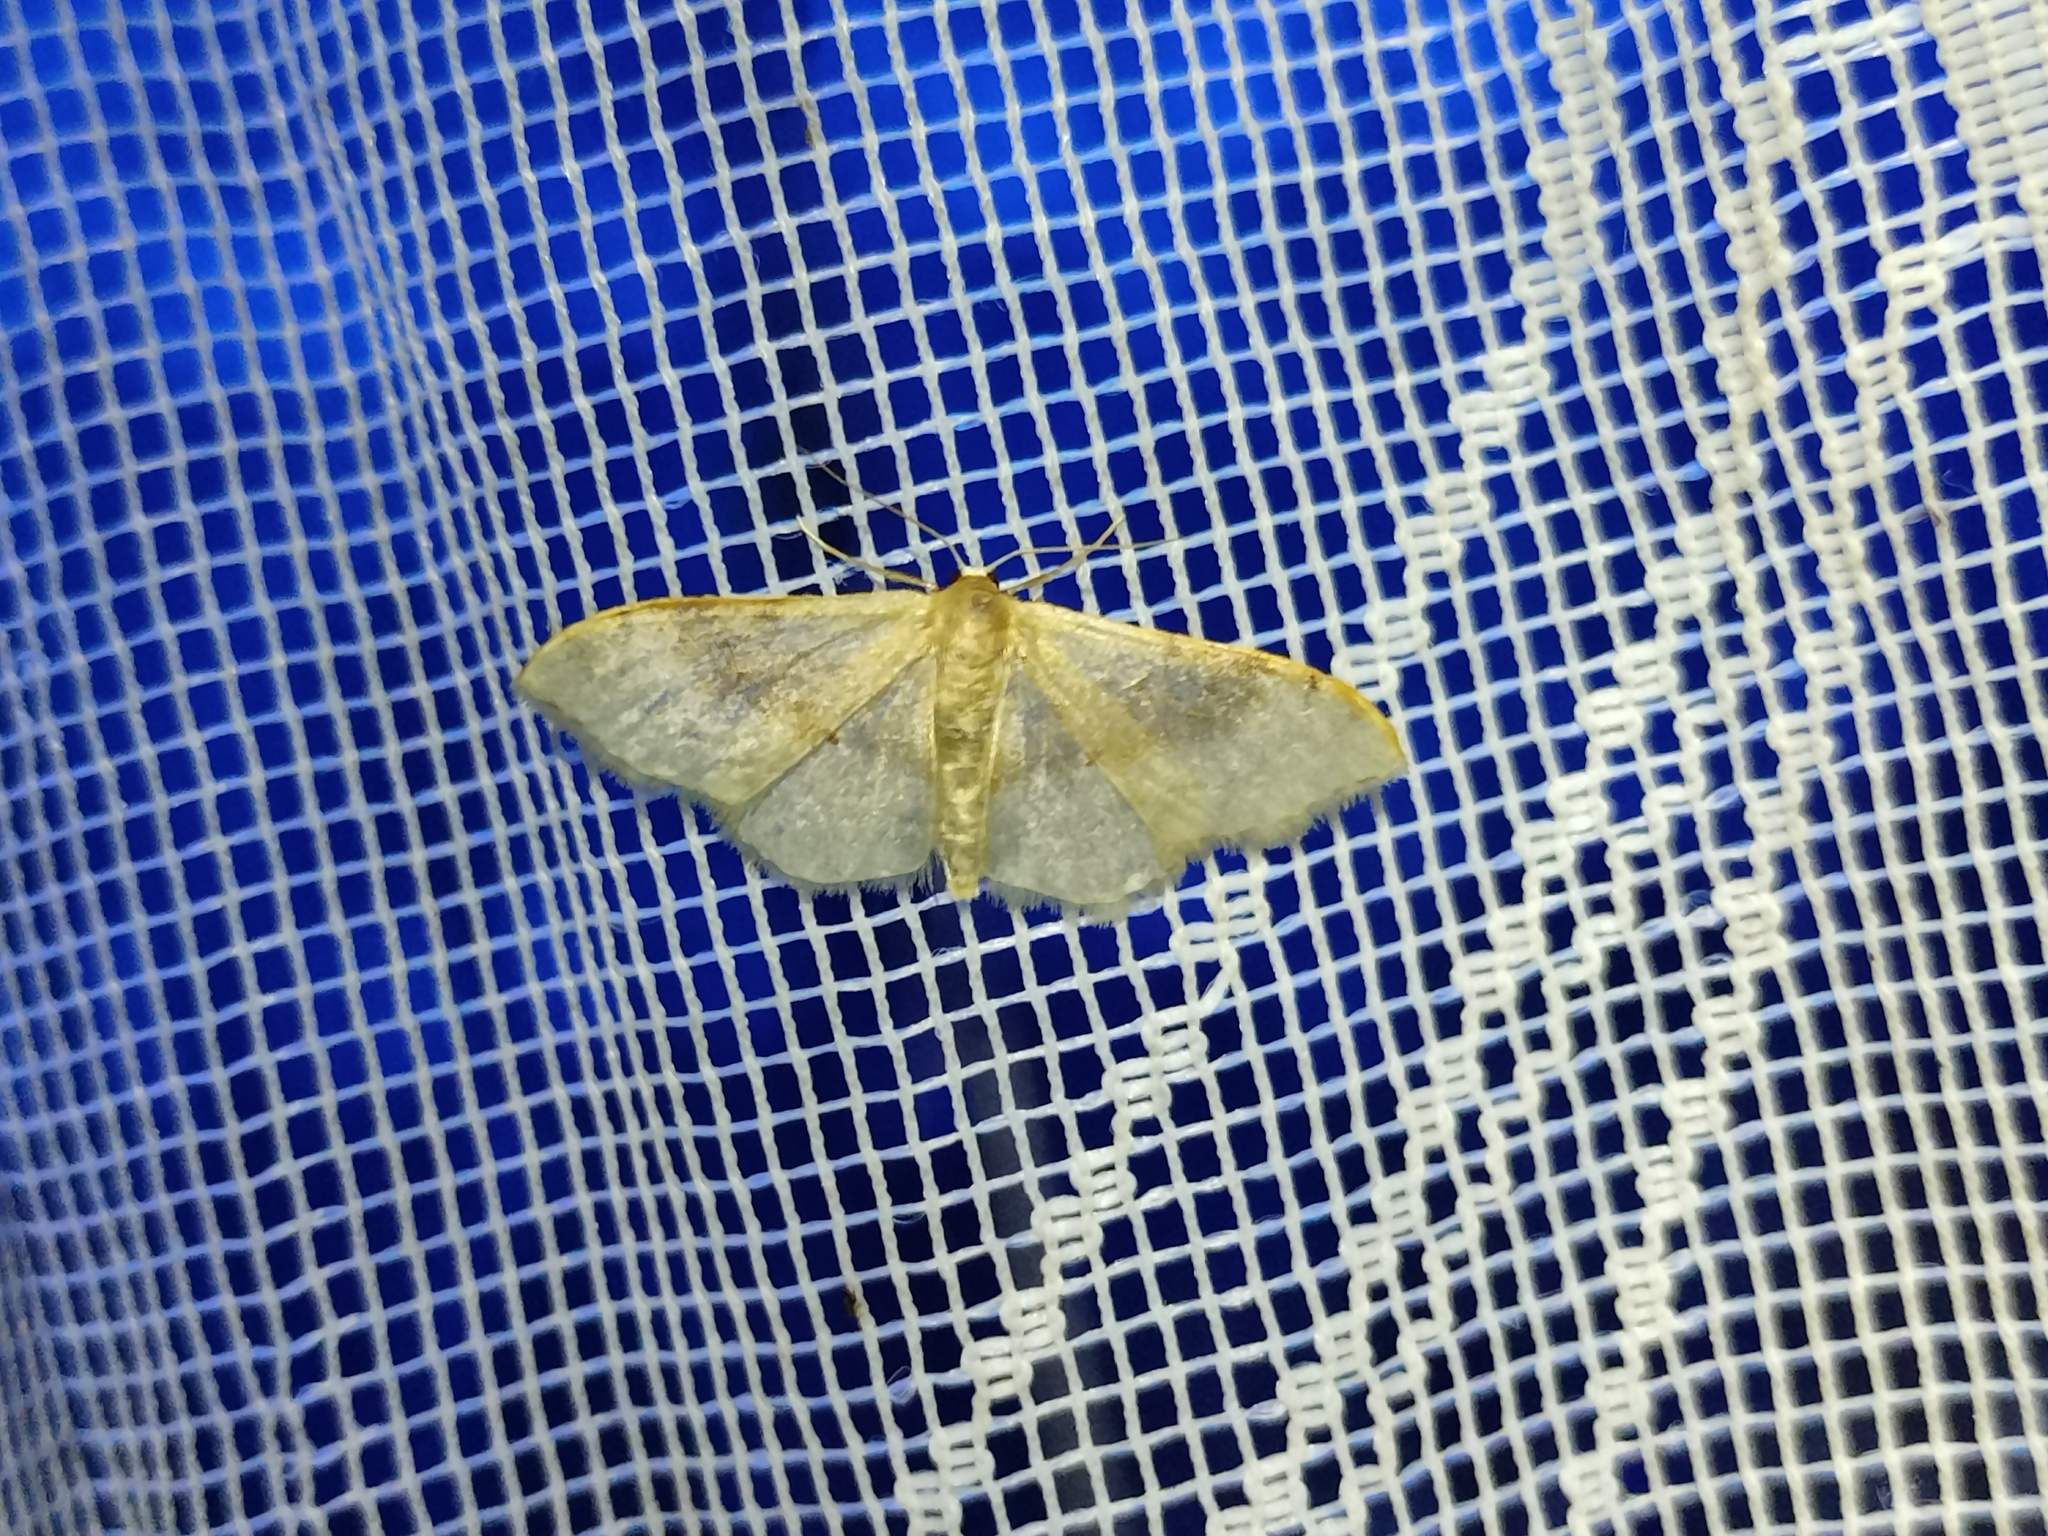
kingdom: Animalia
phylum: Arthropoda
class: Insecta
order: Lepidoptera
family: Geometridae
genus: Idaea
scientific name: Idaea degeneraria
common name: Portland ribbon wave
